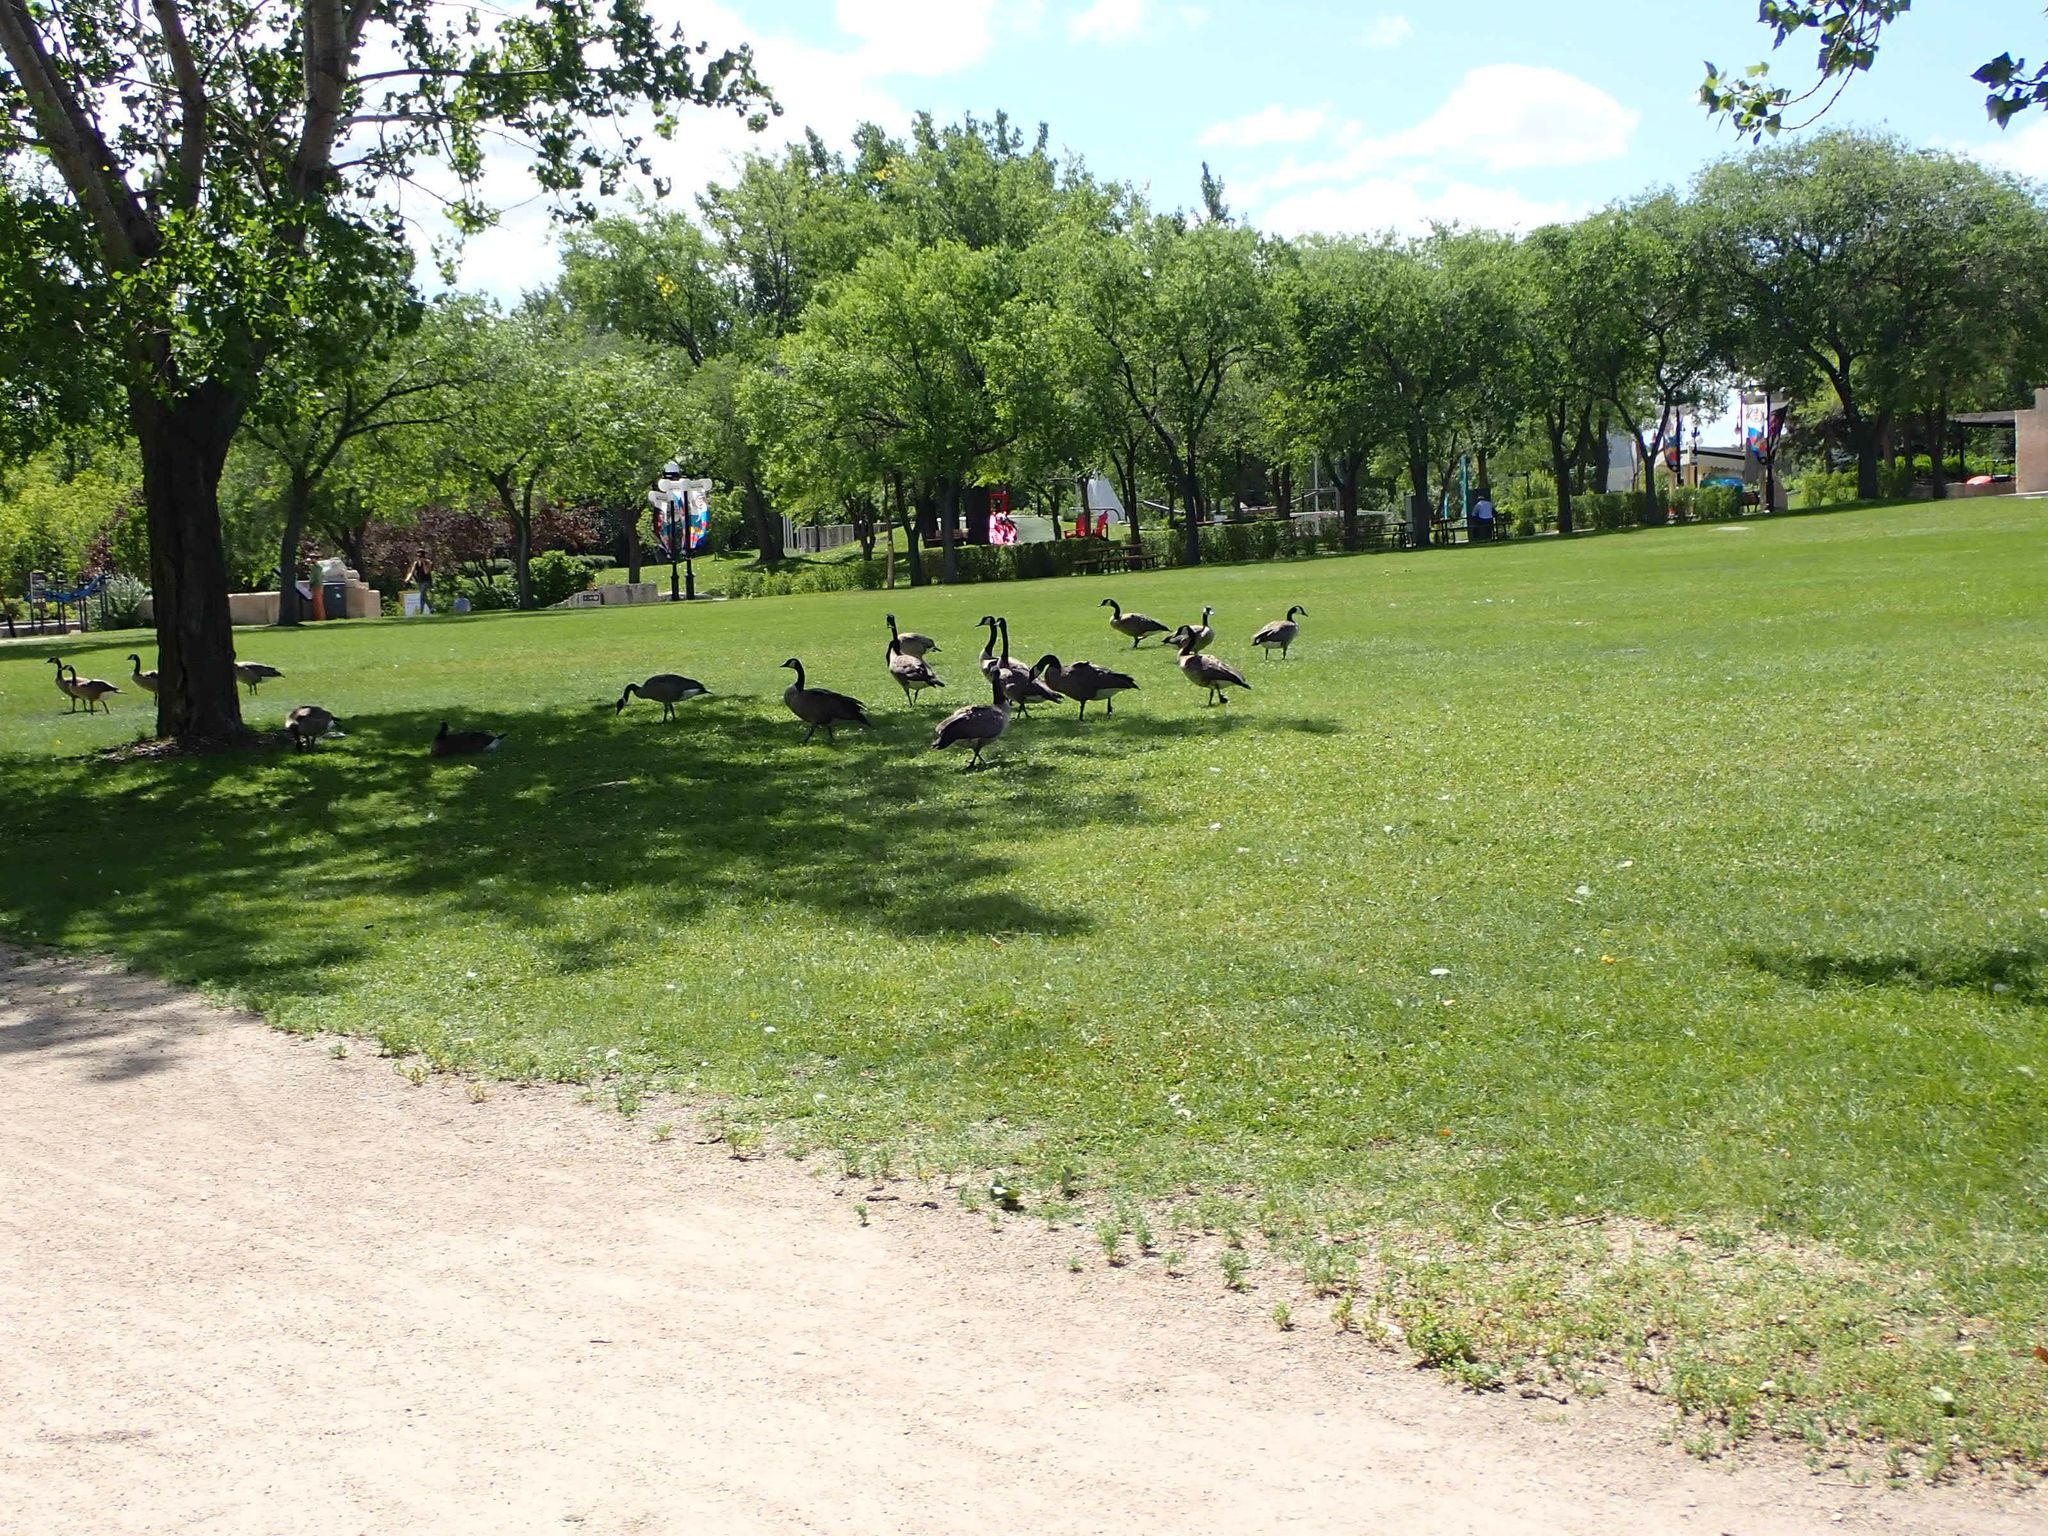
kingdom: Animalia
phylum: Chordata
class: Aves
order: Anseriformes
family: Anatidae
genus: Branta
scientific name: Branta canadensis
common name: Canada goose
